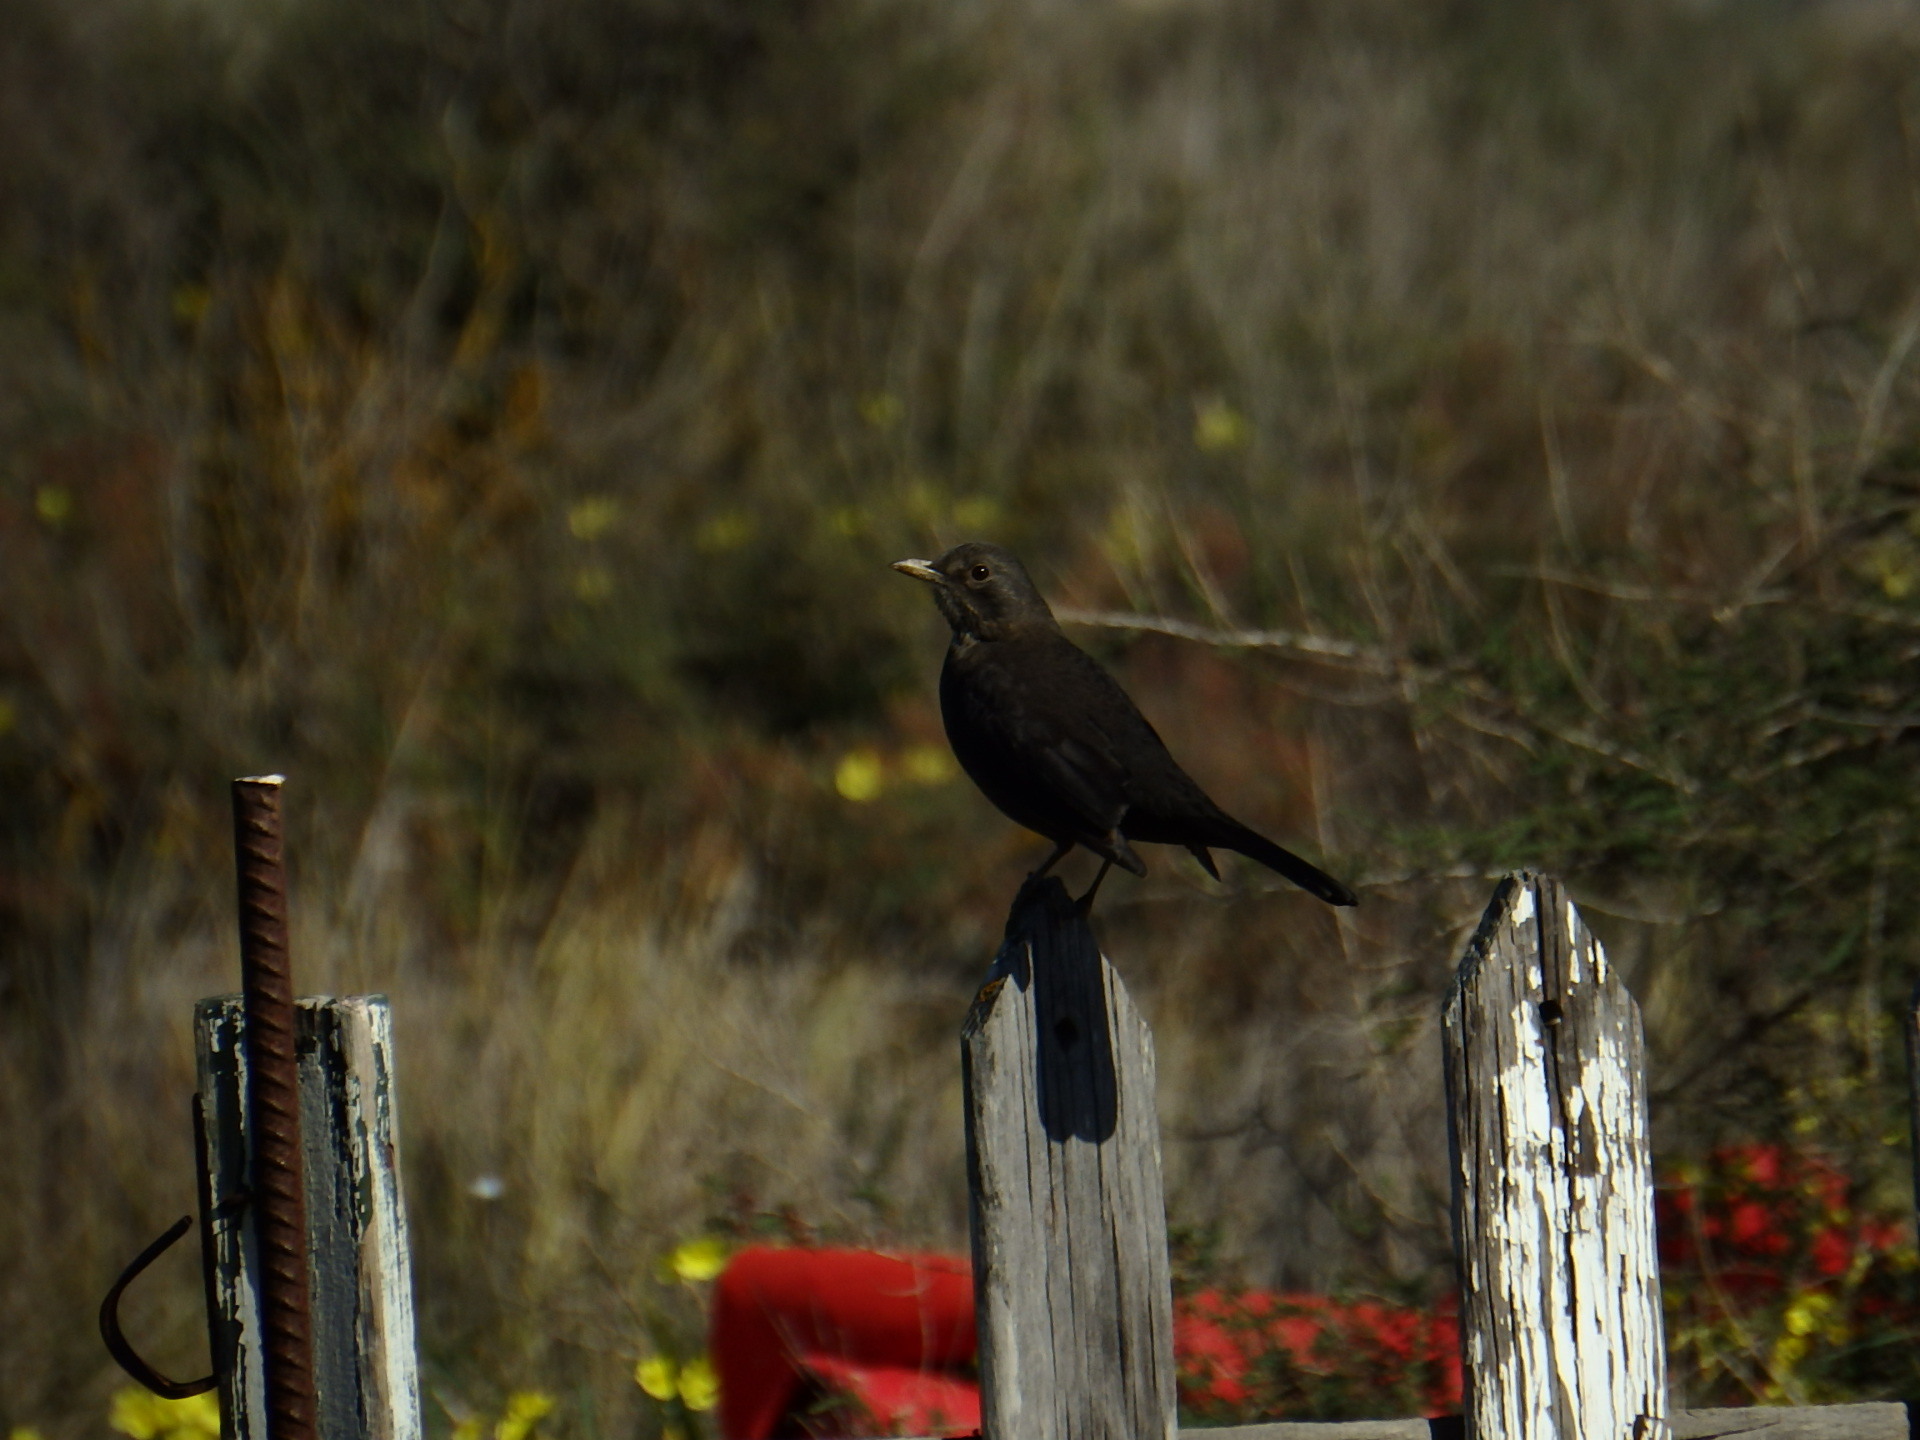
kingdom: Animalia
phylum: Chordata
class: Aves
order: Passeriformes
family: Turdidae
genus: Turdus
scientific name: Turdus merula
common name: Common blackbird
